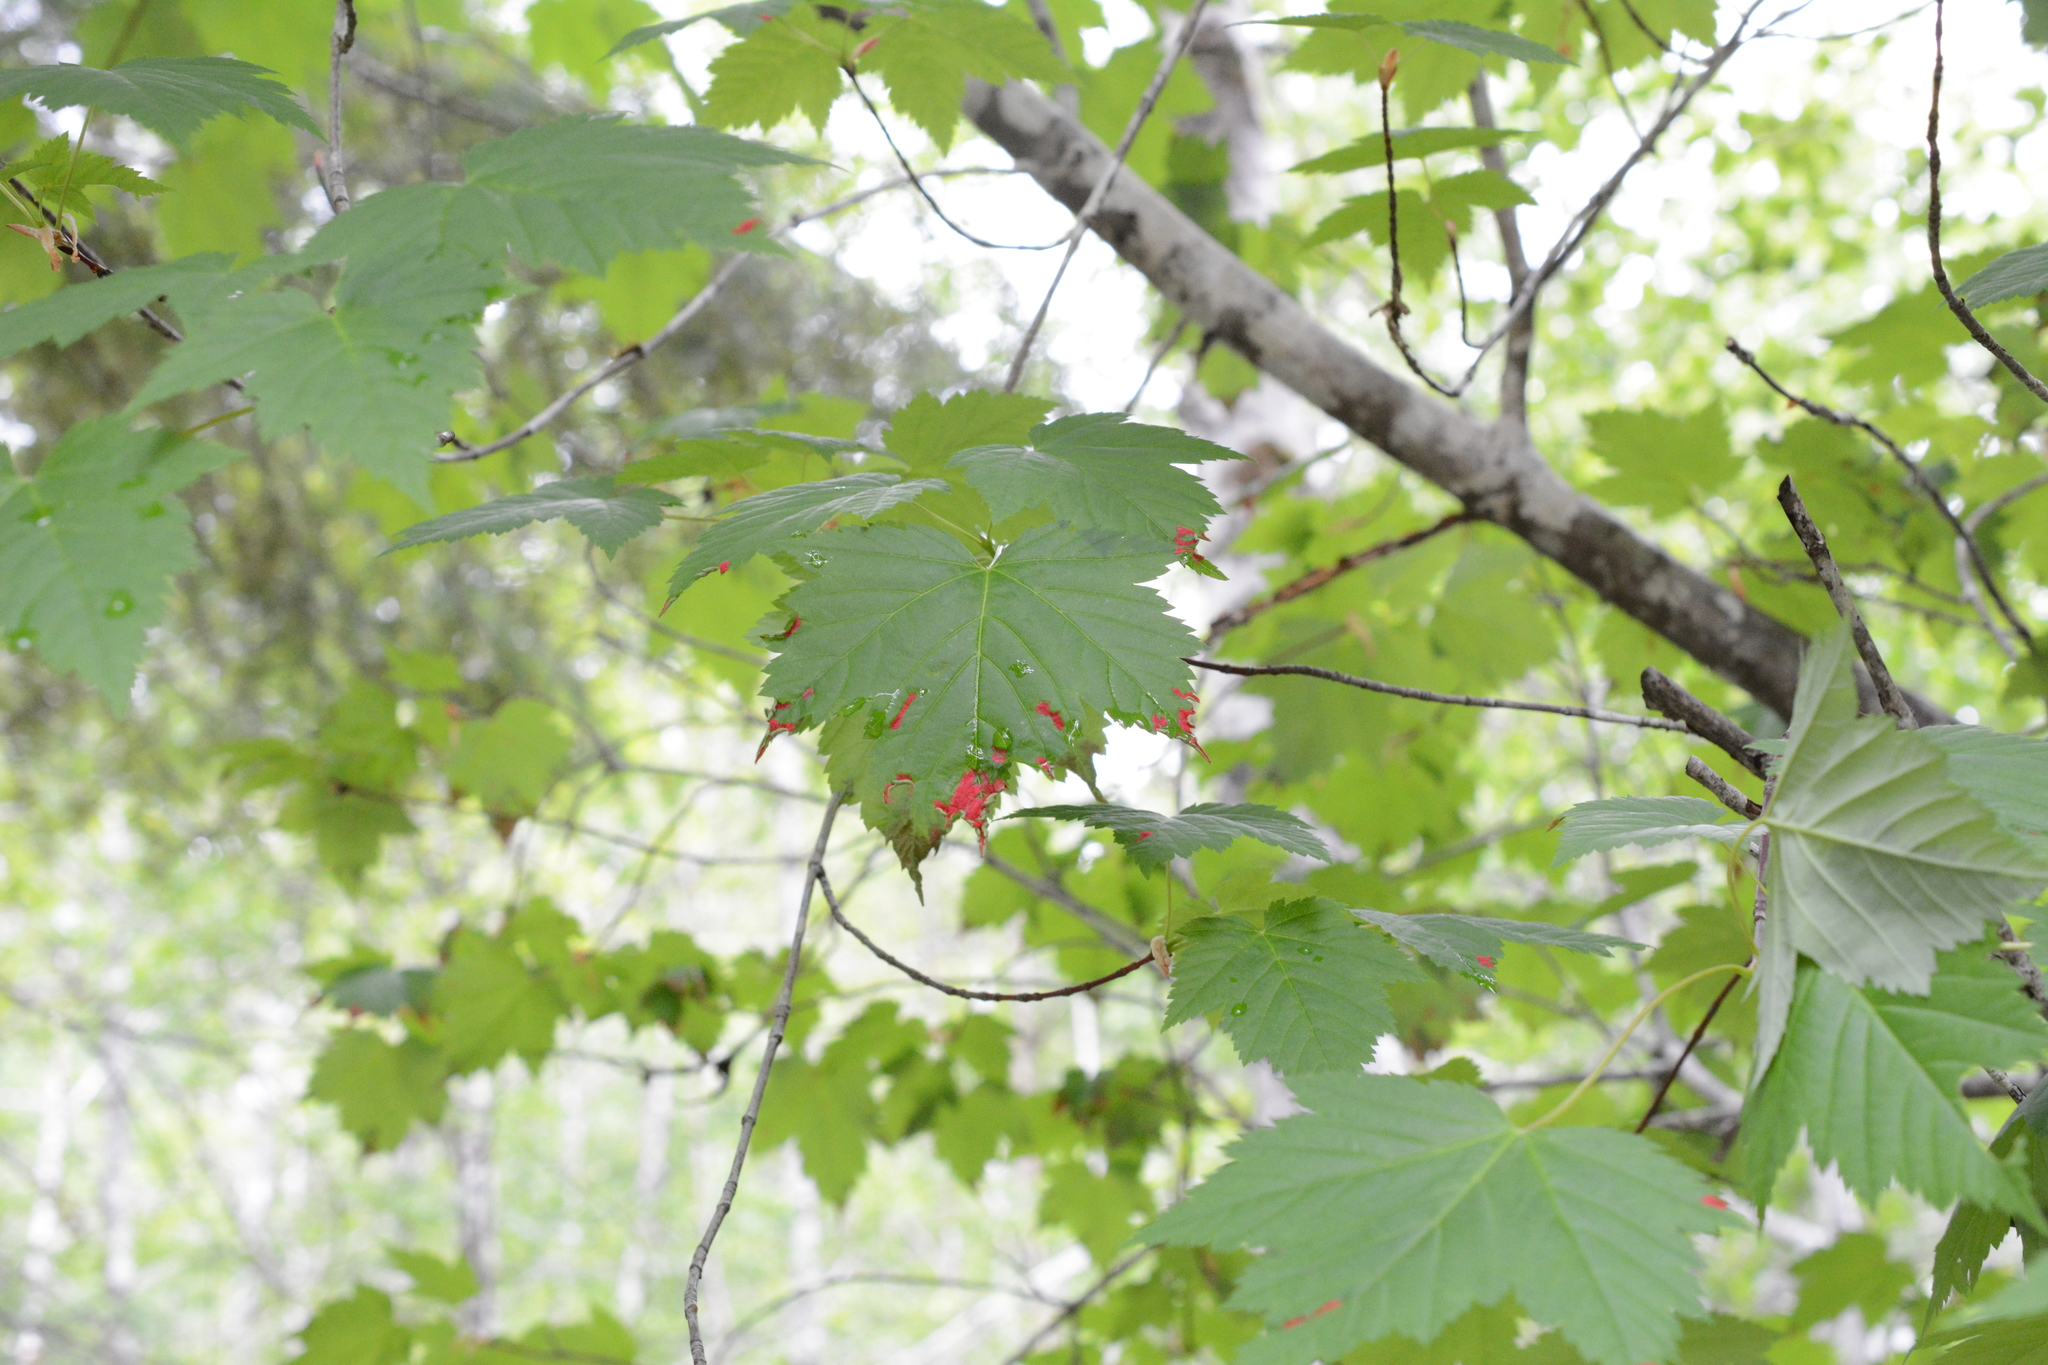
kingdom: Animalia
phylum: Arthropoda
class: Arachnida
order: Trombidiformes
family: Eriophyidae
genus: Aceria
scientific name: Aceria
